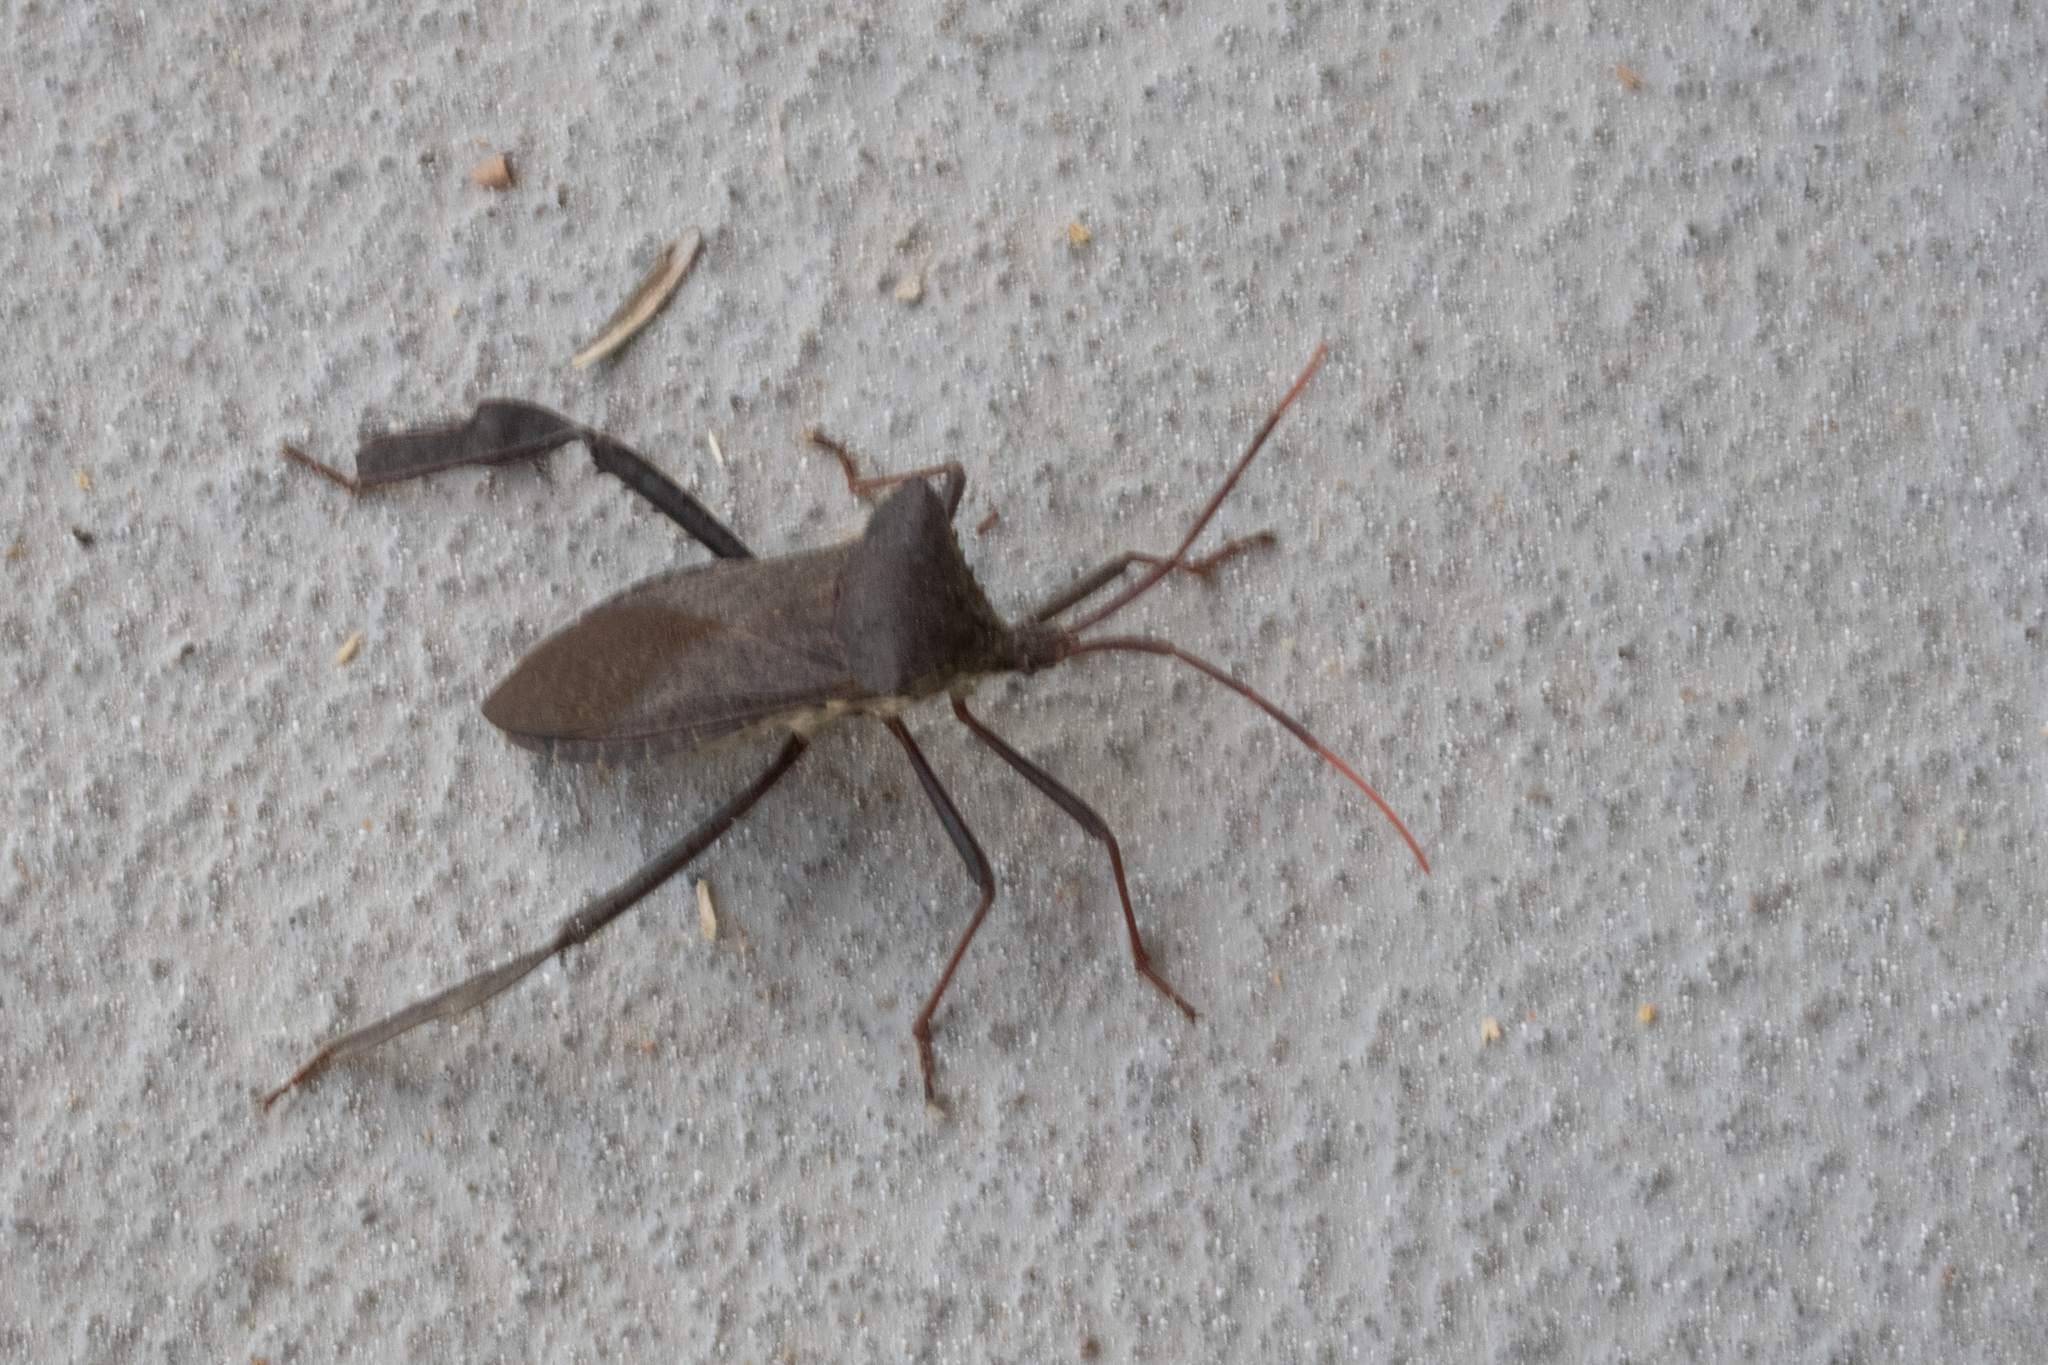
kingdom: Animalia
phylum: Arthropoda
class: Insecta
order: Hemiptera
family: Coreidae
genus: Acanthocephala
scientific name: Acanthocephala declivis
